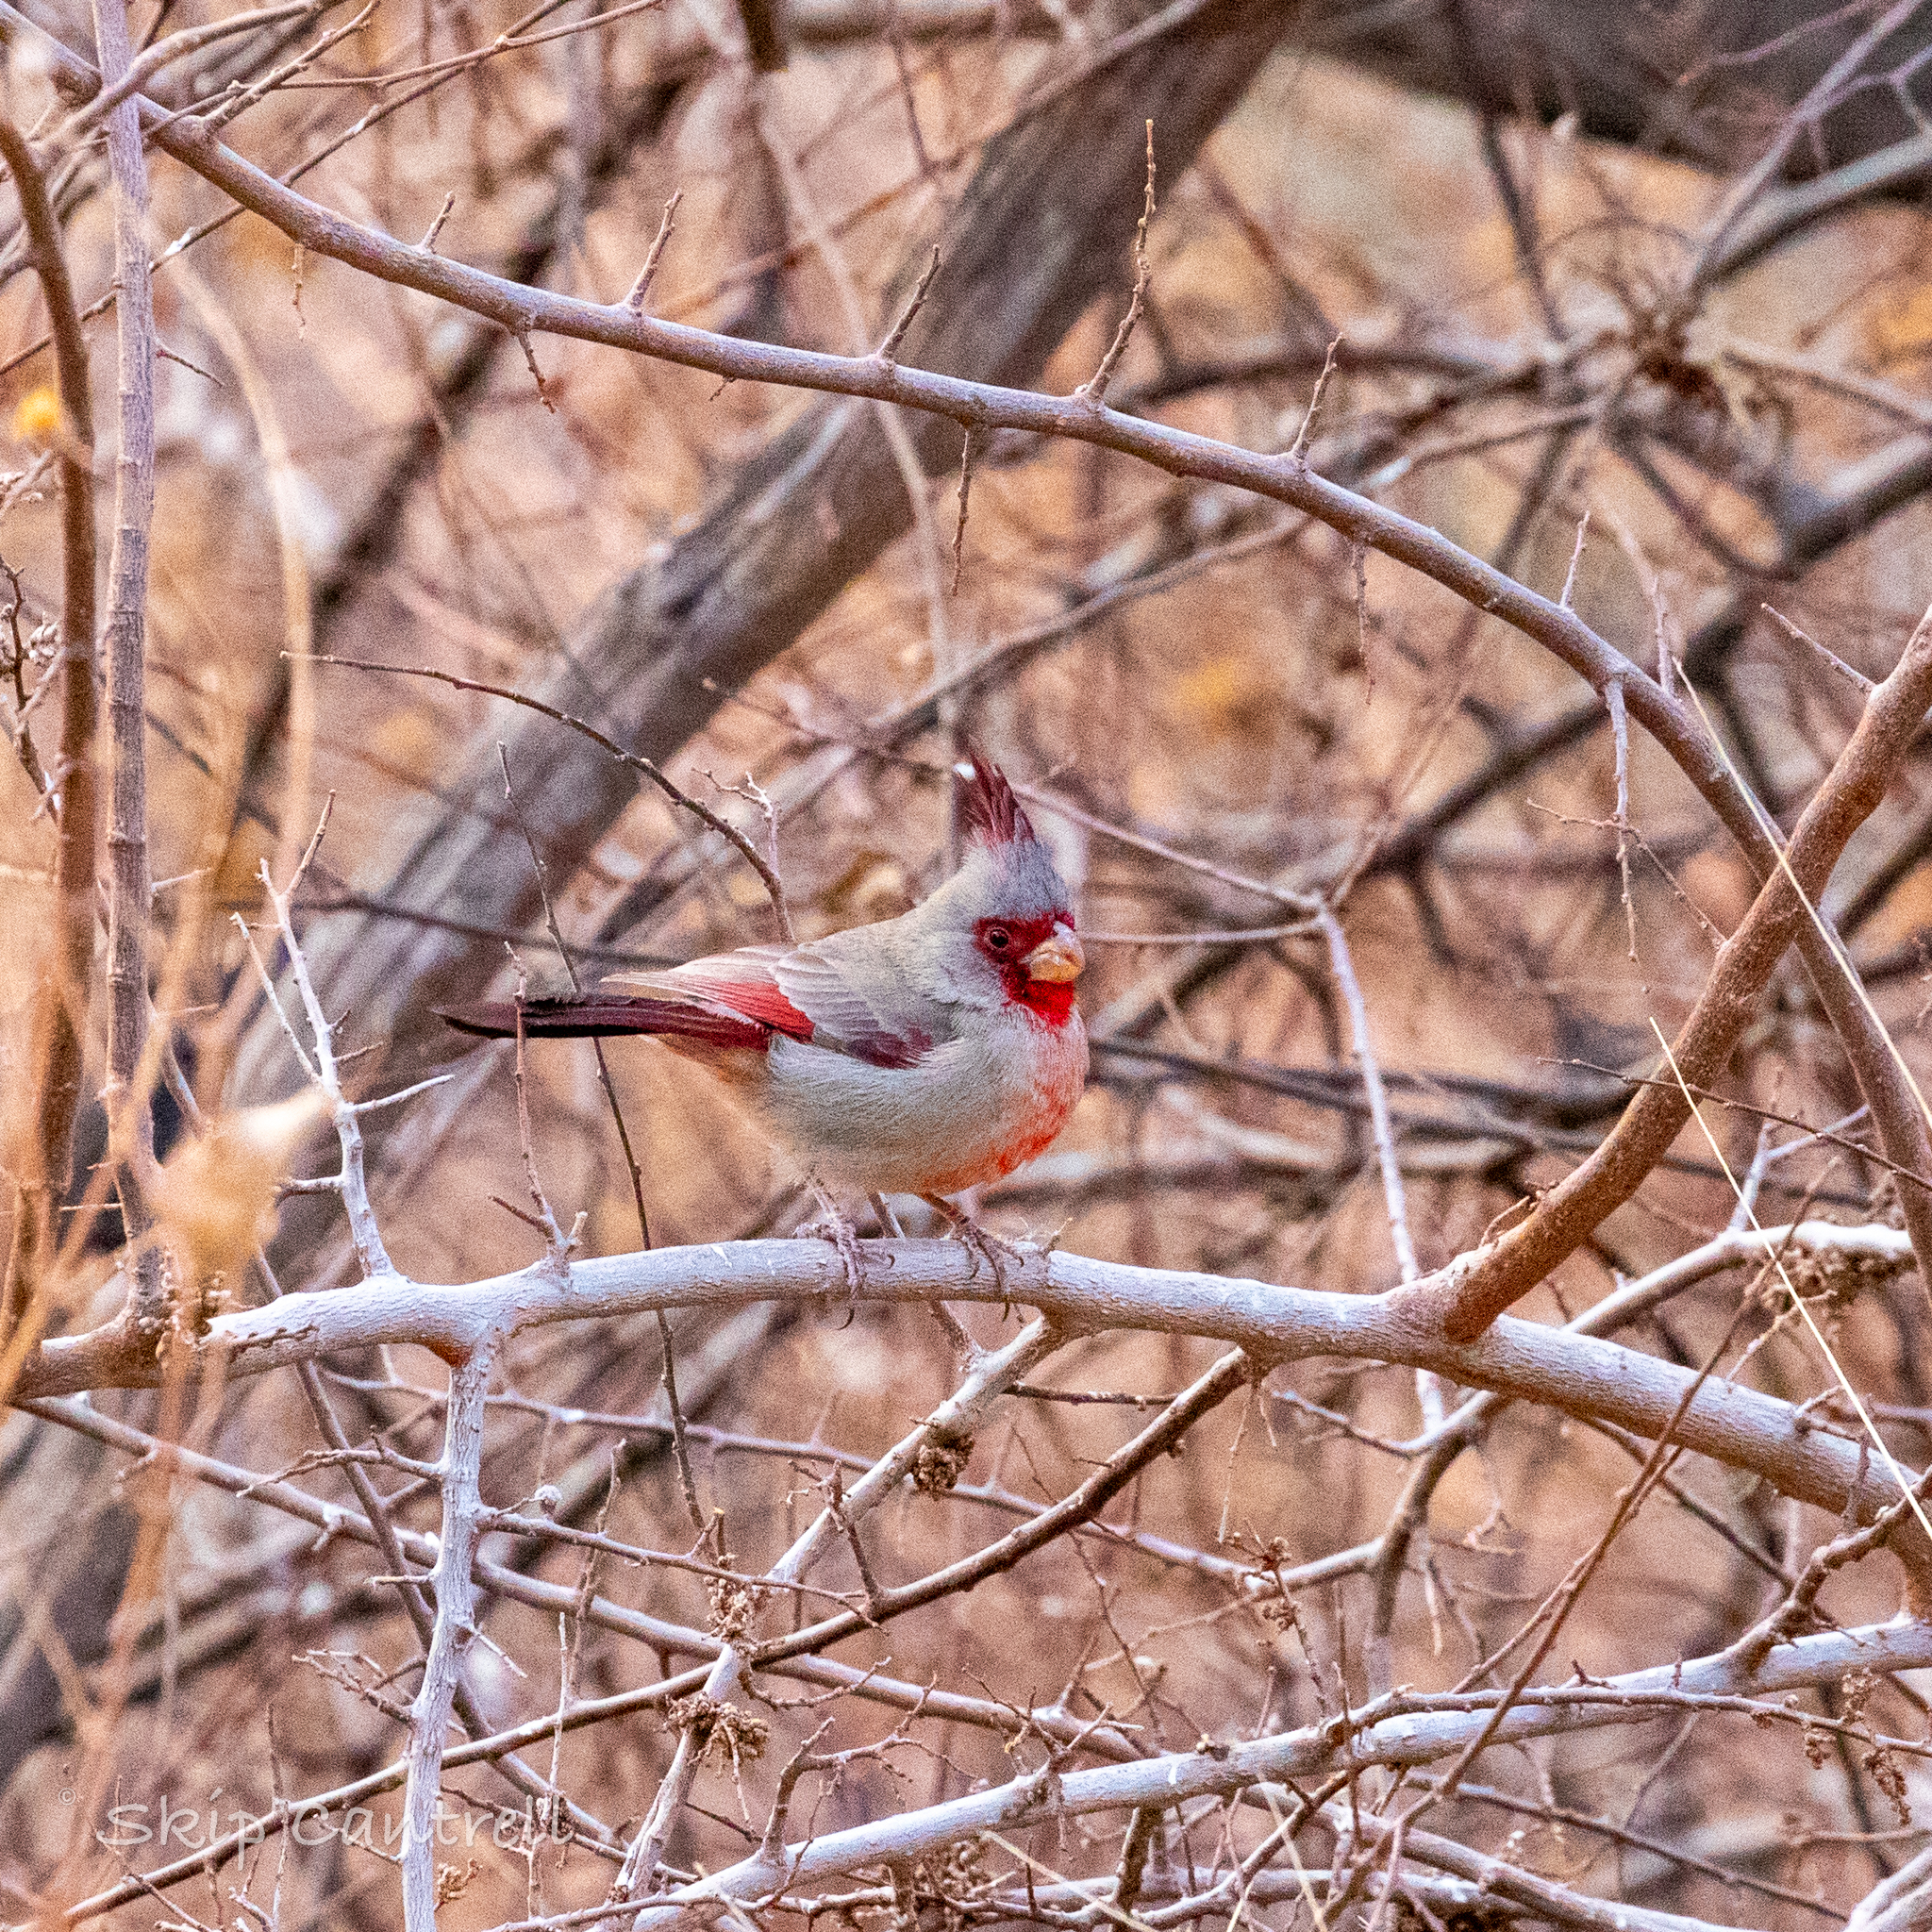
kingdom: Animalia
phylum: Chordata
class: Aves
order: Passeriformes
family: Cardinalidae
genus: Cardinalis
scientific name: Cardinalis sinuatus
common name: Pyrrhuloxia
